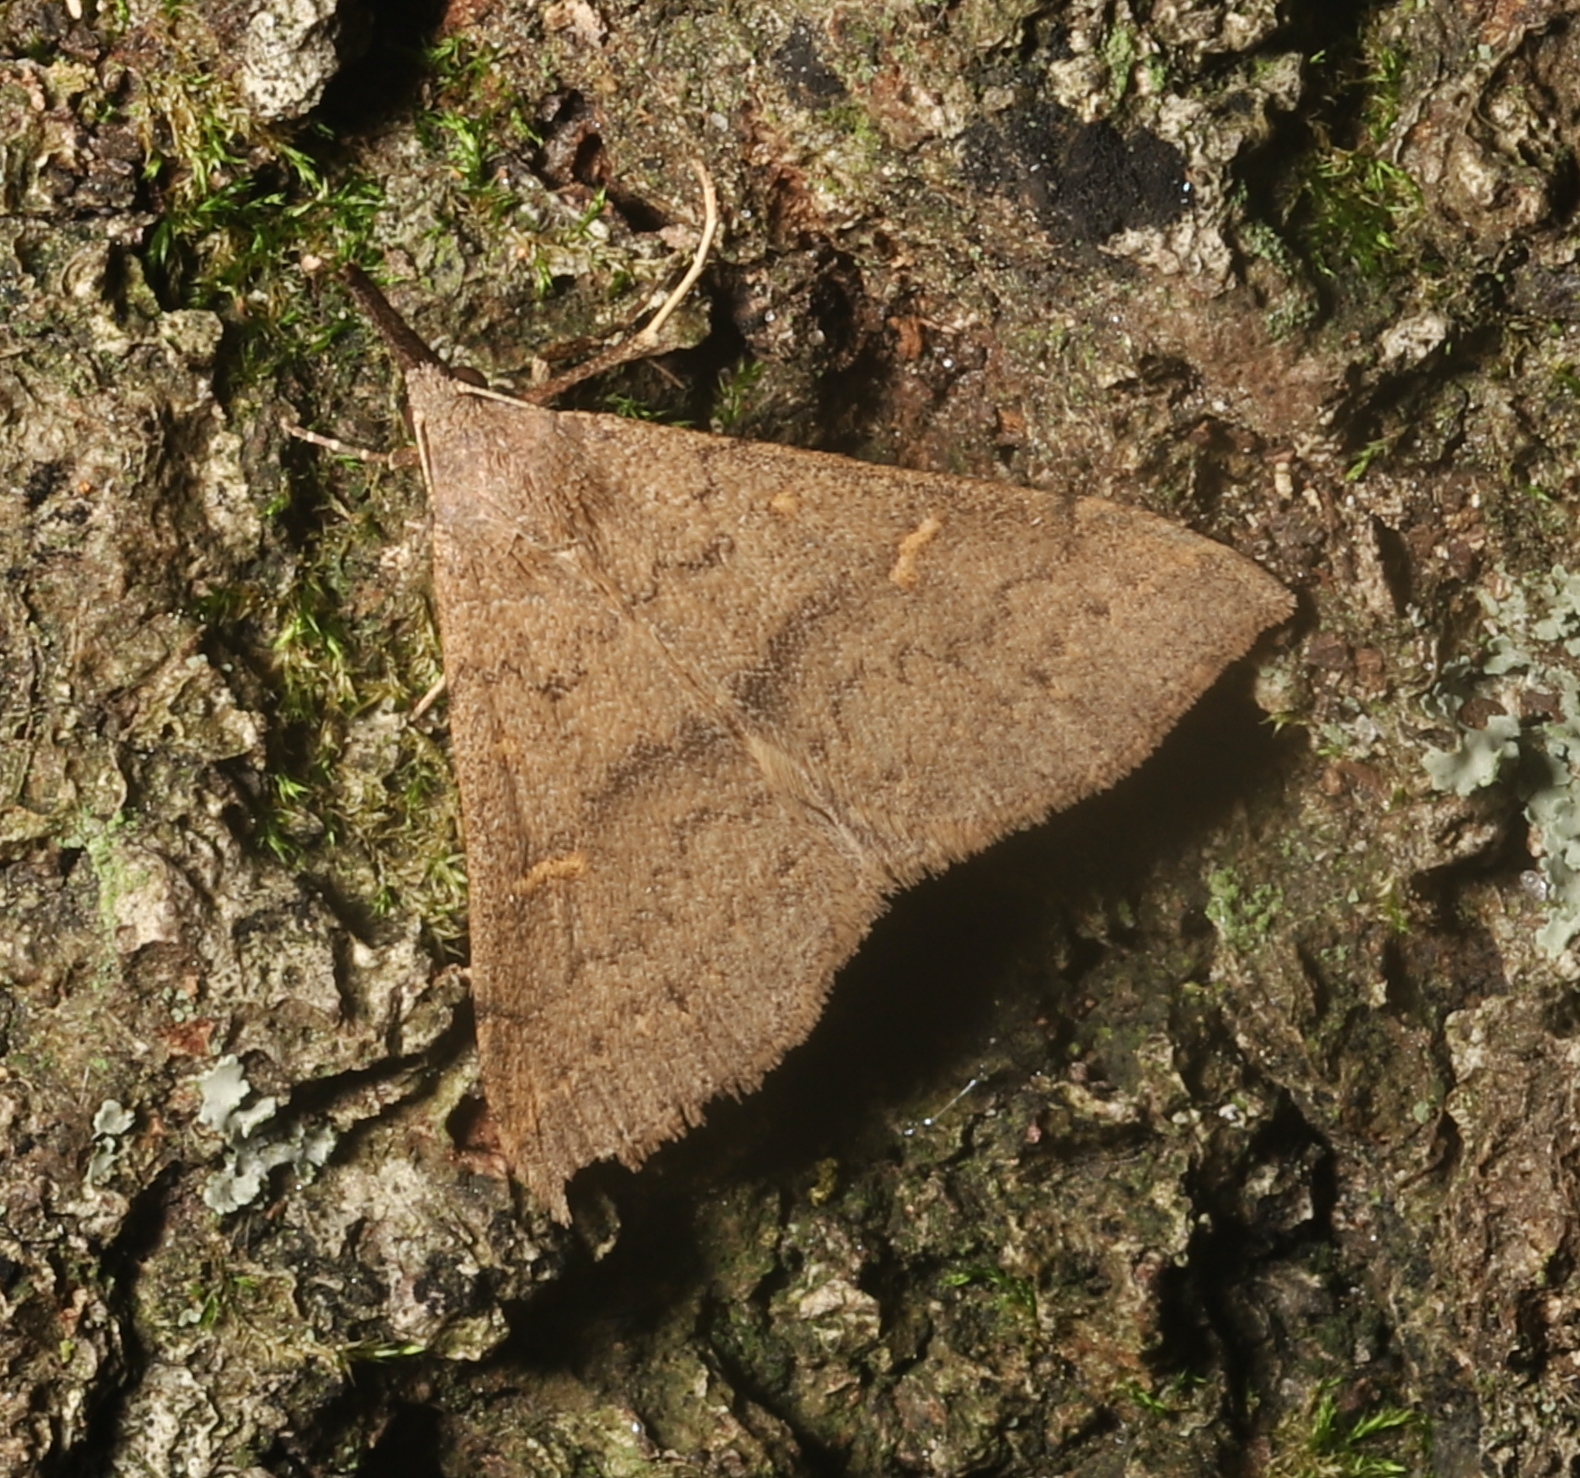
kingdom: Animalia
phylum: Arthropoda
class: Insecta
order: Lepidoptera
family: Erebidae
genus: Renia
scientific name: Renia adspergillus
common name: Speckled renia moth
